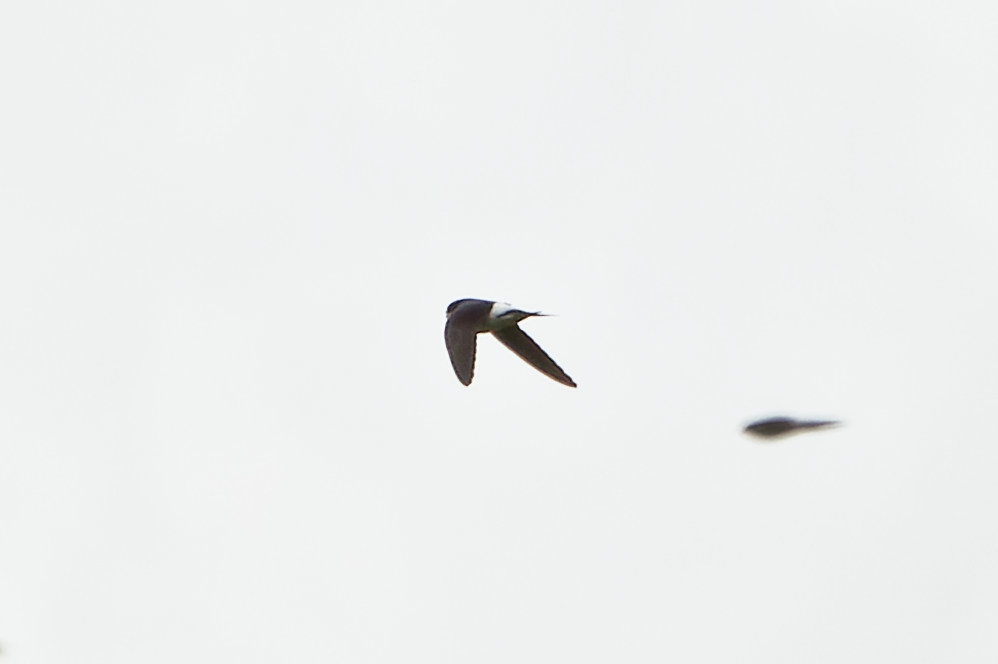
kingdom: Animalia
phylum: Chordata
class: Aves
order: Passeriformes
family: Hirundinidae
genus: Delichon
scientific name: Delichon urbicum
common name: Common house martin
